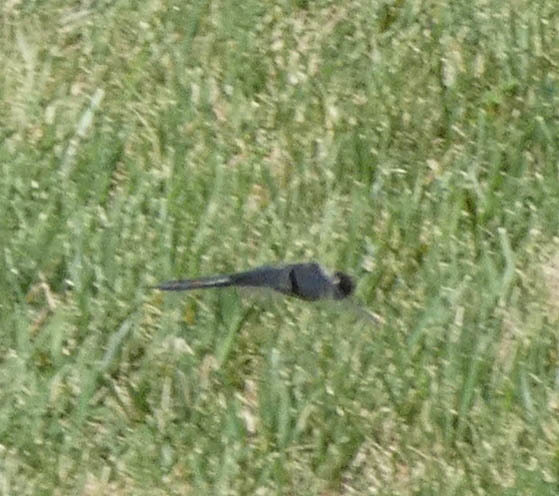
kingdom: Animalia
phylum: Arthropoda
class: Insecta
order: Odonata
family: Libellulidae
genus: Tramea
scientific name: Tramea lacerata
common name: Black saddlebags
